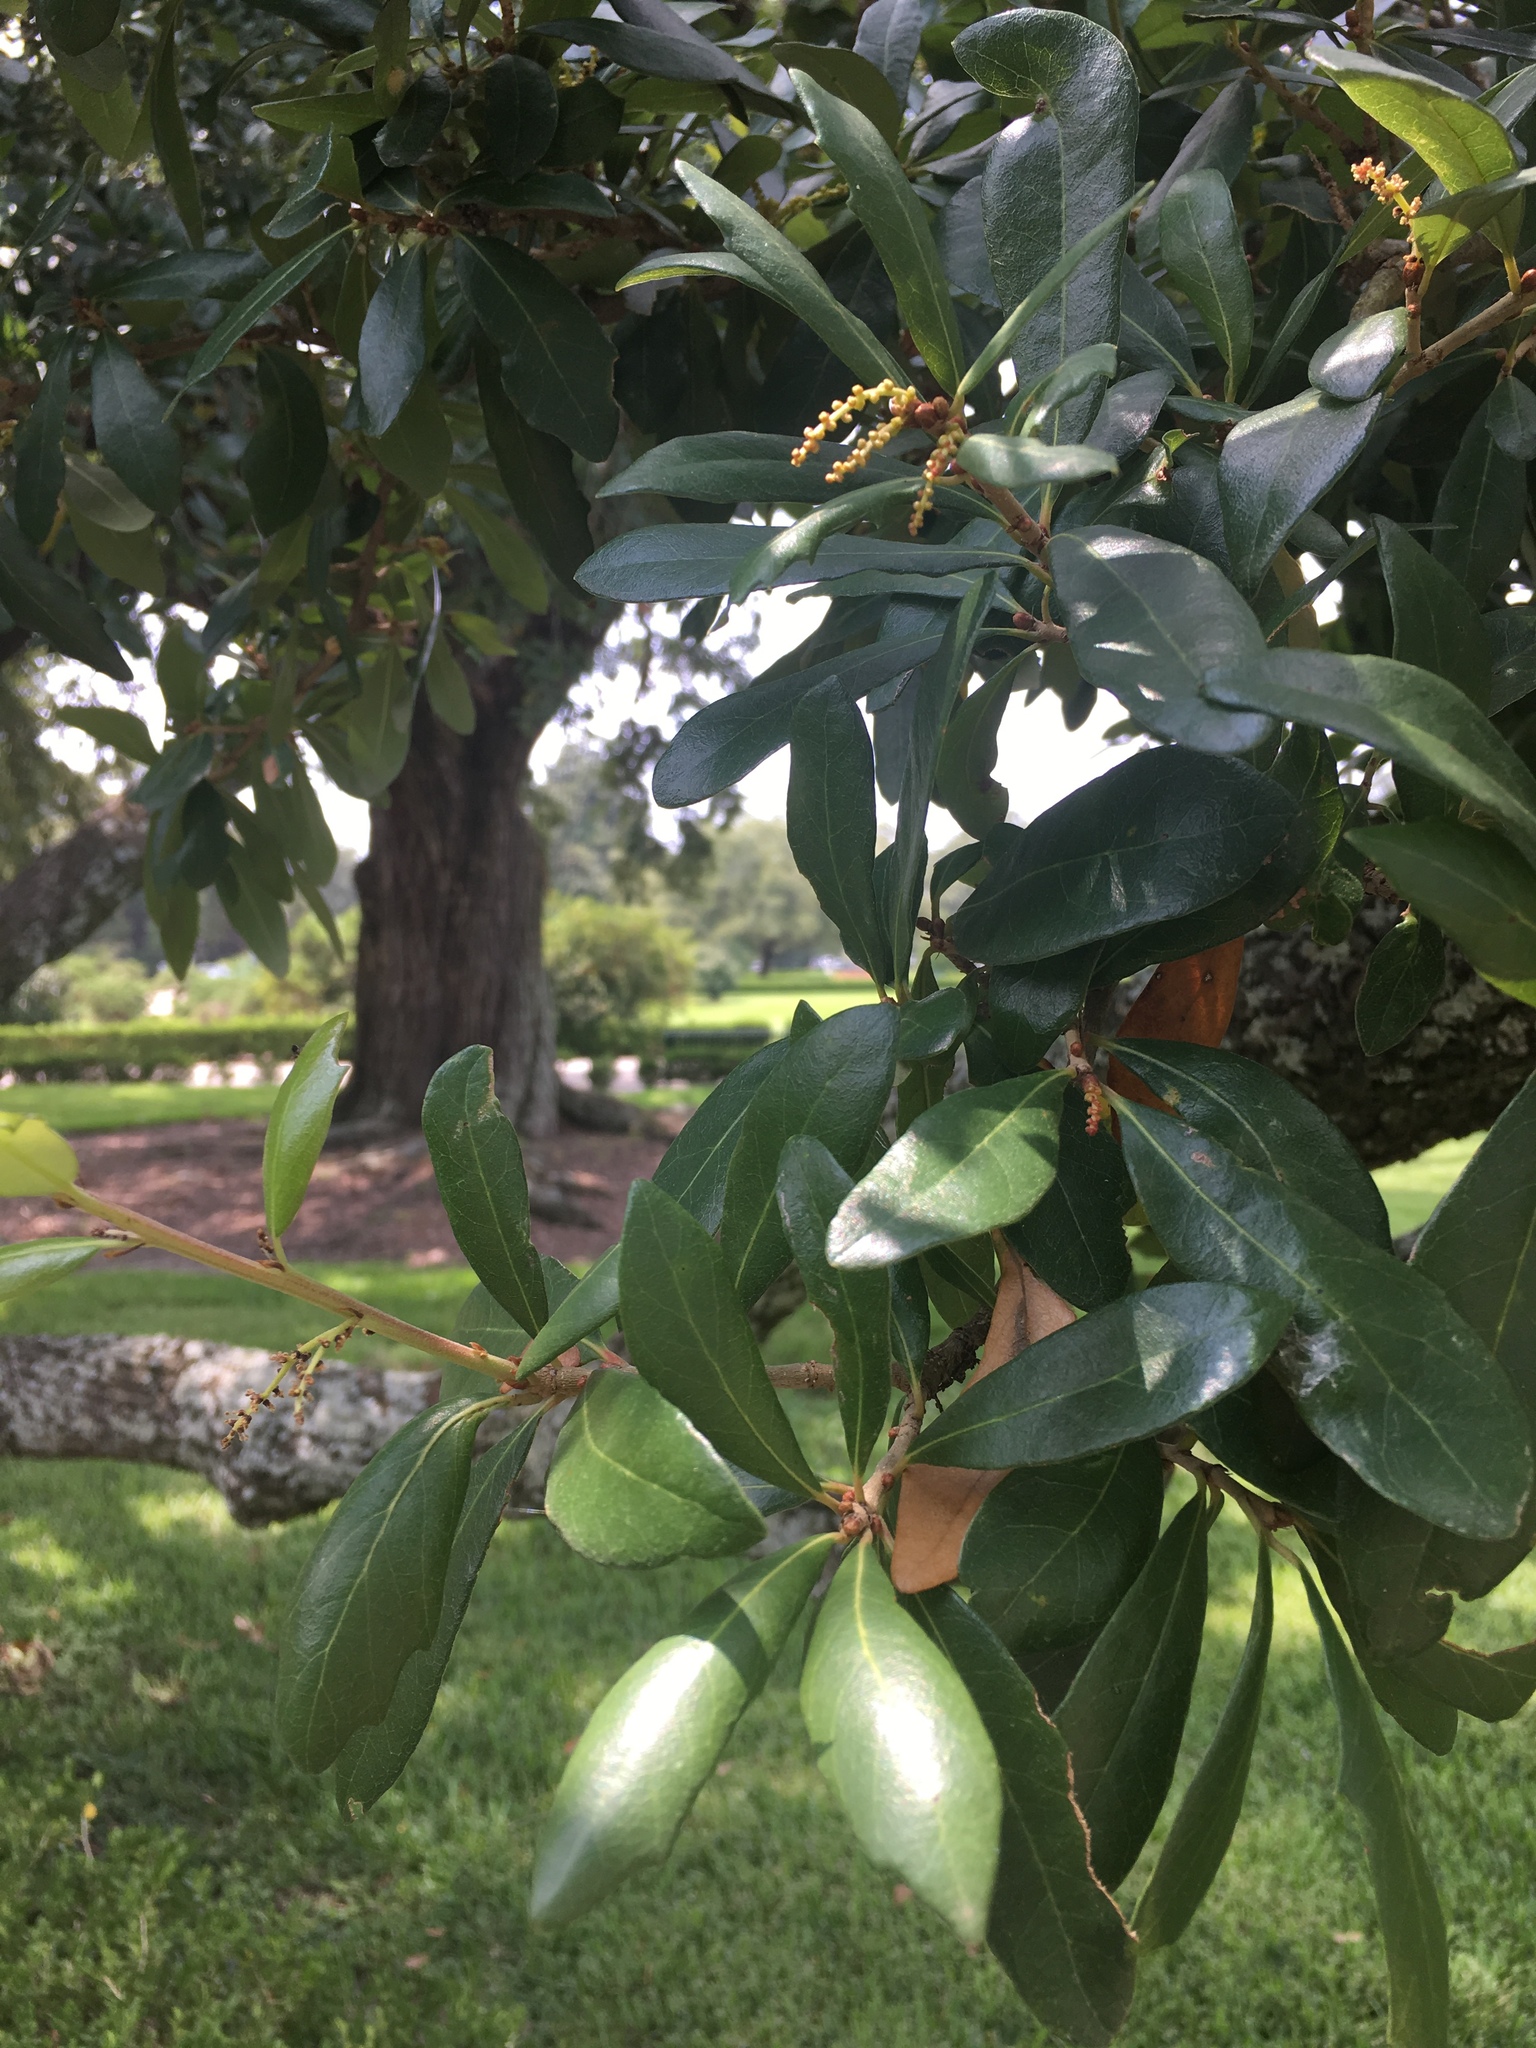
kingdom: Plantae
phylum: Tracheophyta
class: Magnoliopsida
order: Fagales
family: Fagaceae
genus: Quercus
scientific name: Quercus virginiana
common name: Southern live oak
